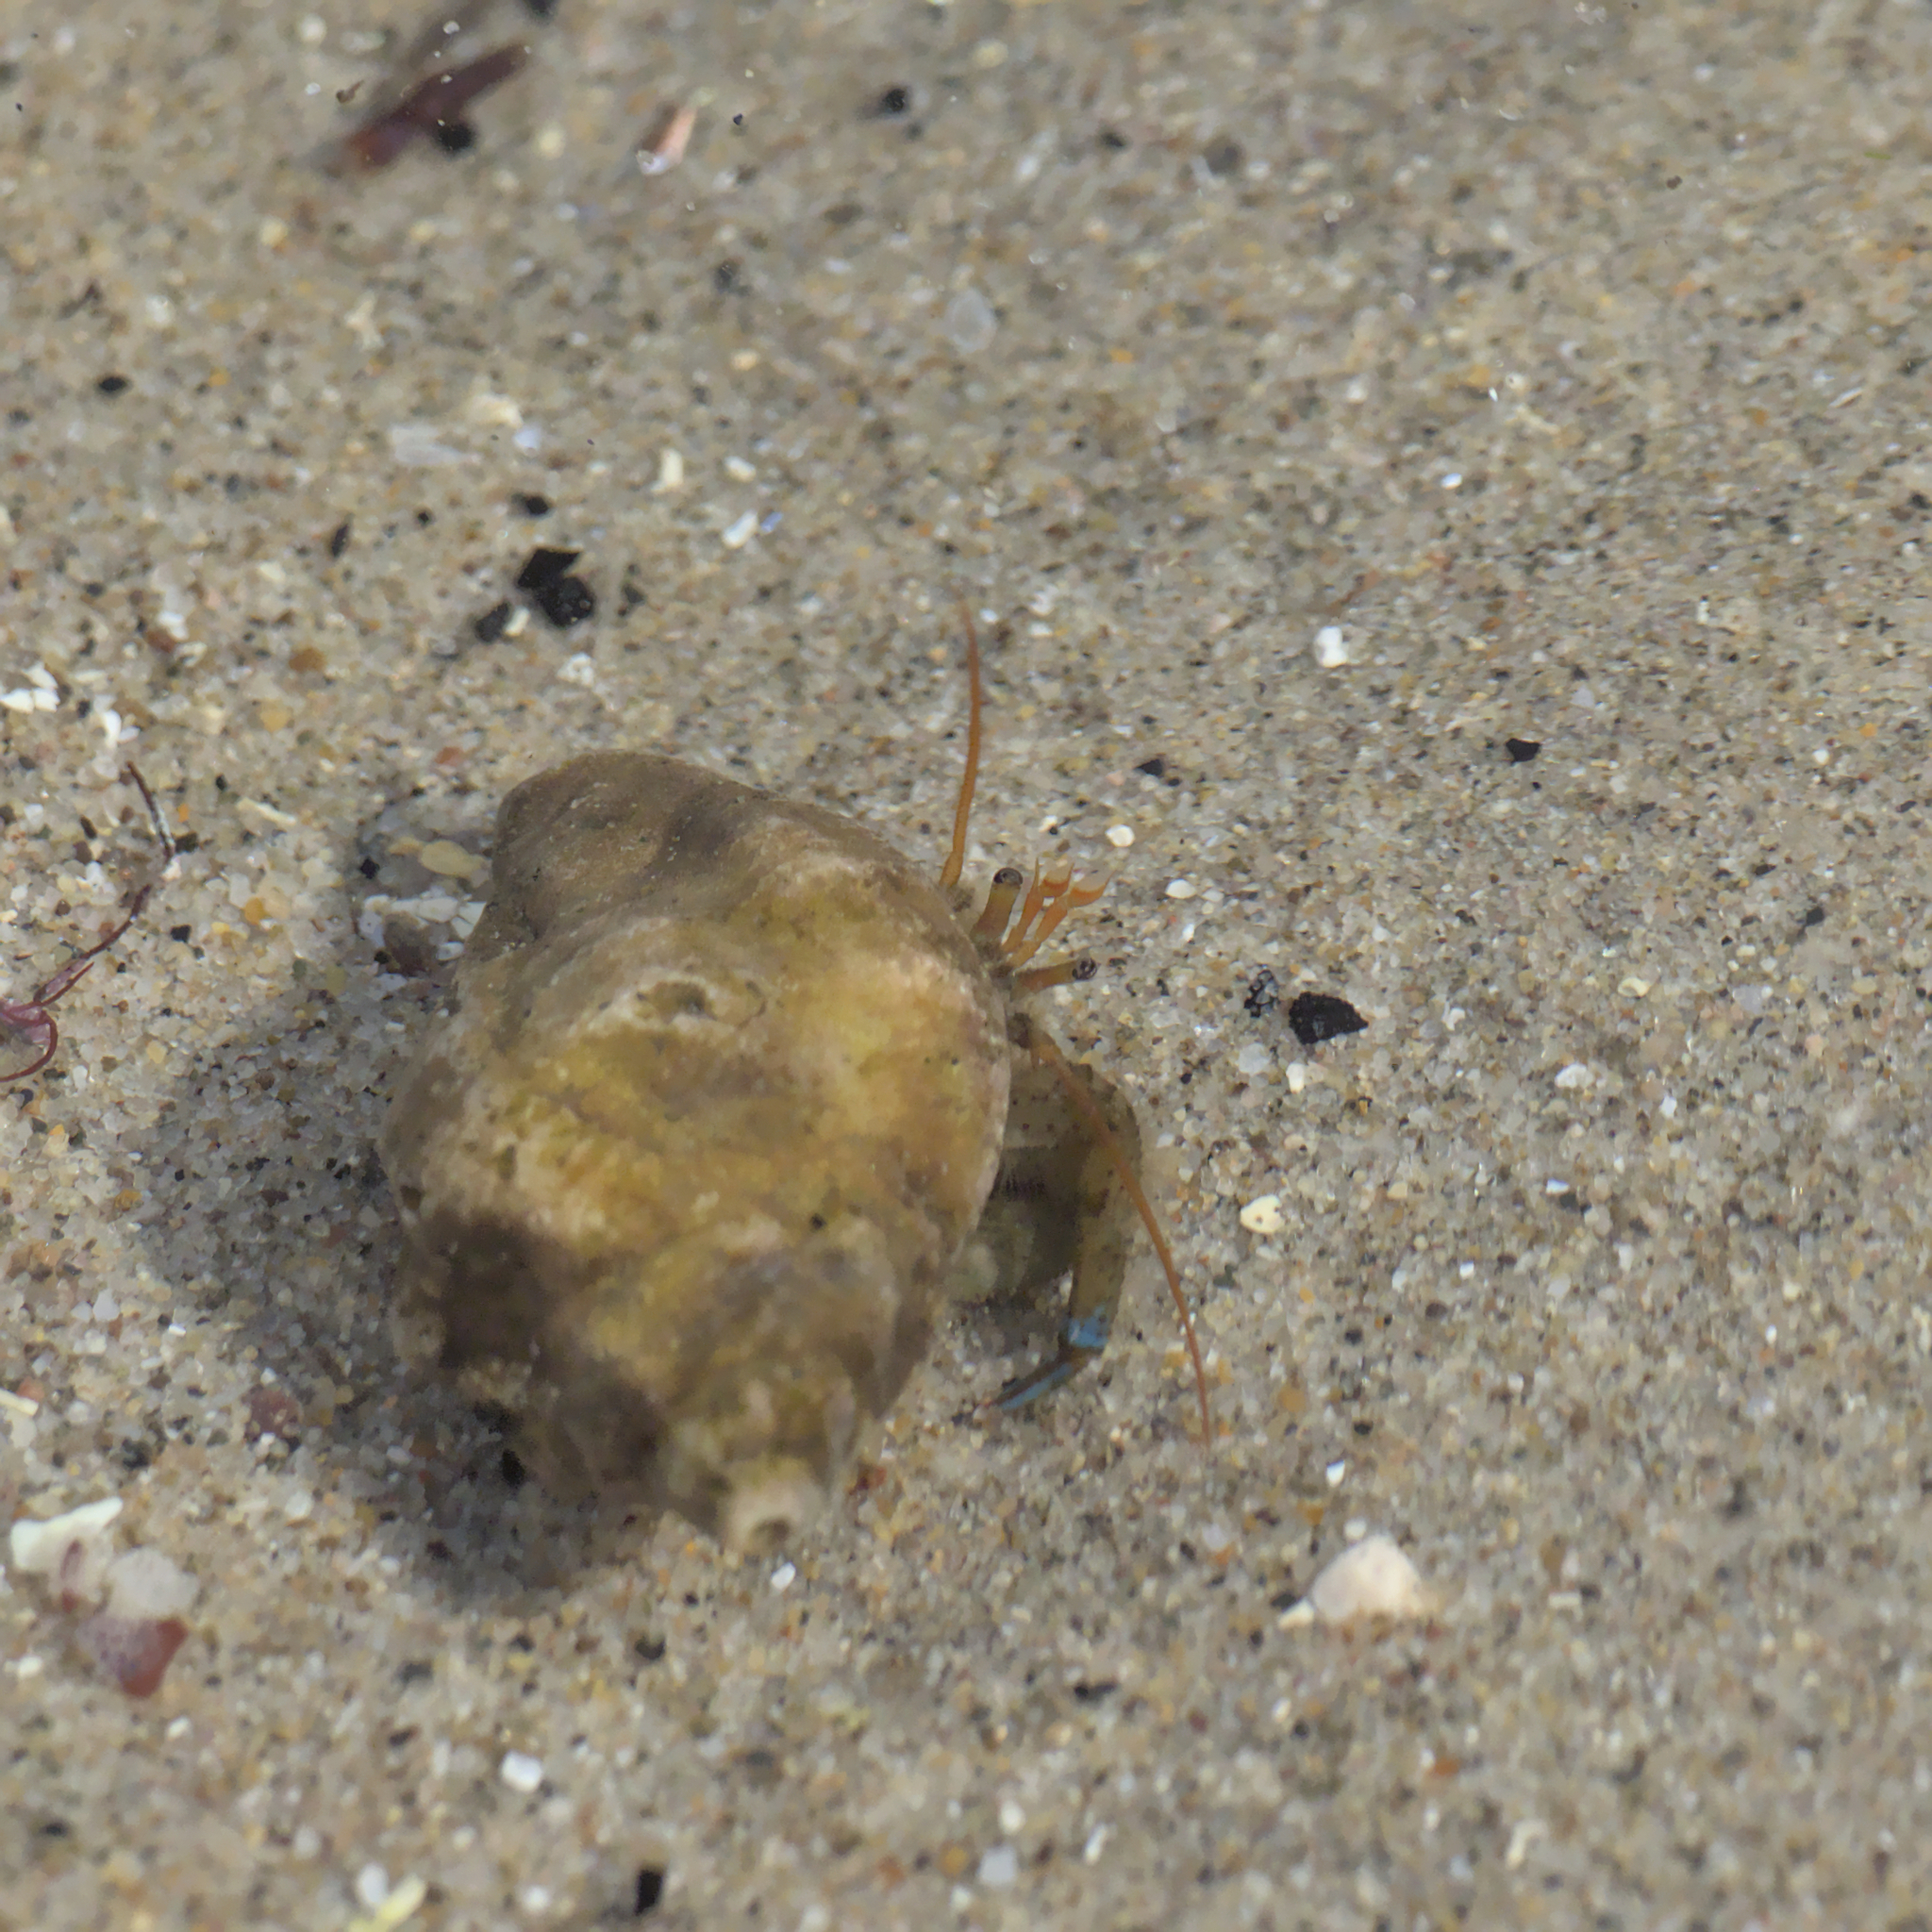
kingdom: Animalia
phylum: Arthropoda
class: Malacostraca
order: Decapoda
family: Paguridae
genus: Pagurus
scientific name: Pagurus samuelis
